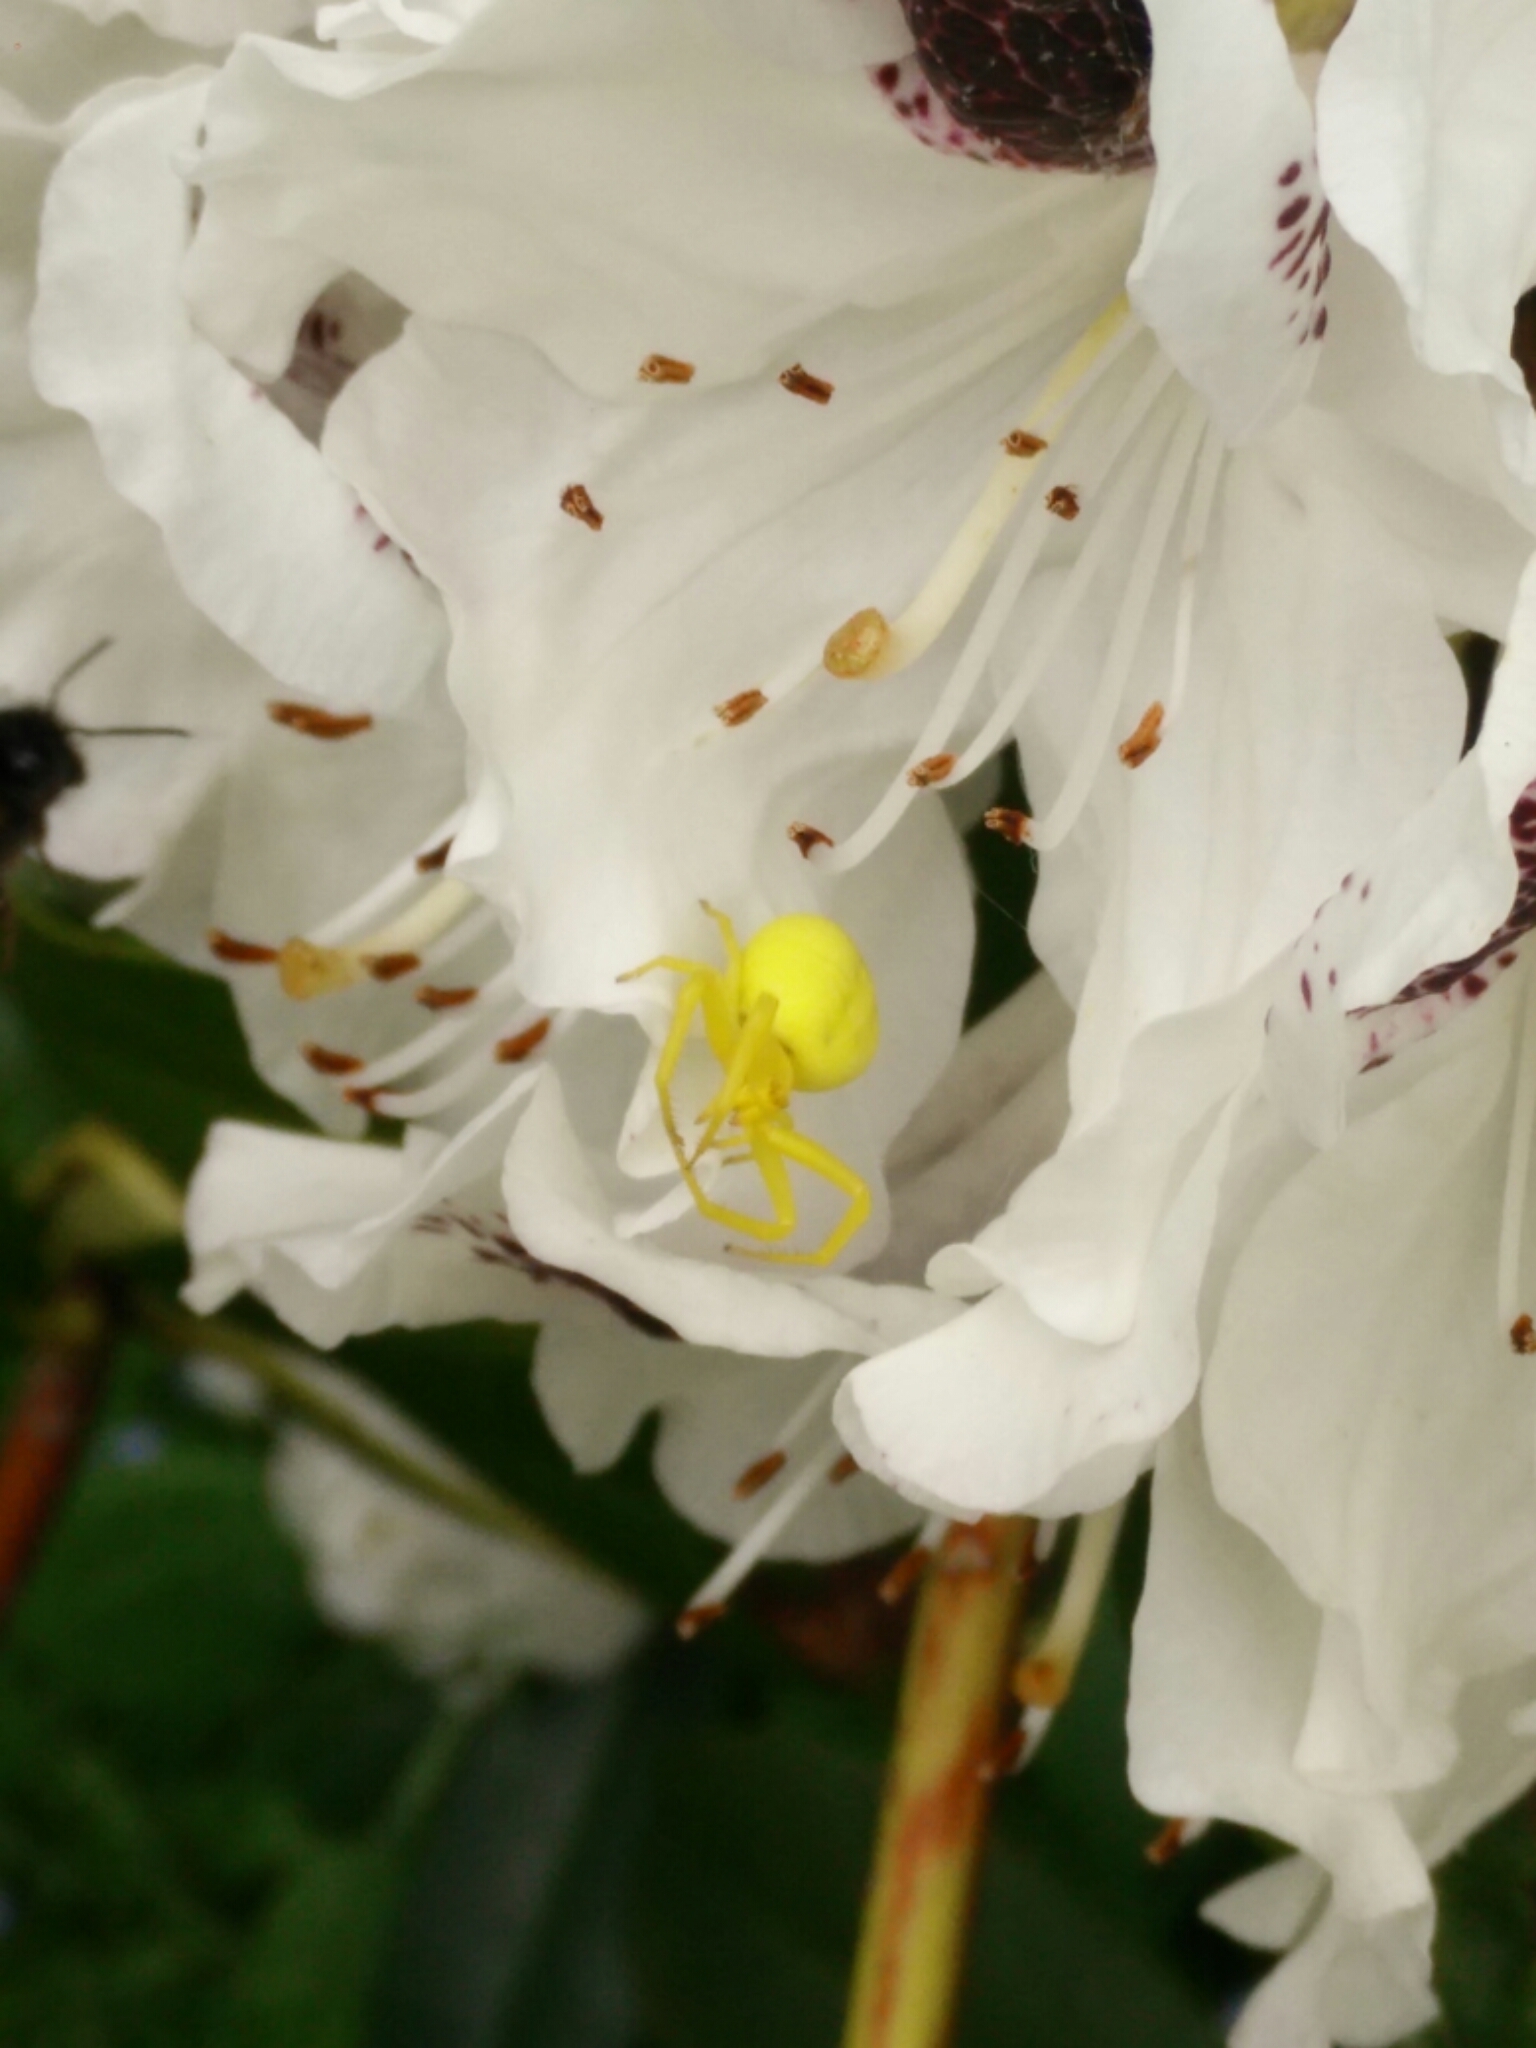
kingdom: Animalia
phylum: Arthropoda
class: Arachnida
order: Araneae
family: Thomisidae
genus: Misumena
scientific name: Misumena vatia
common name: Goldenrod crab spider
